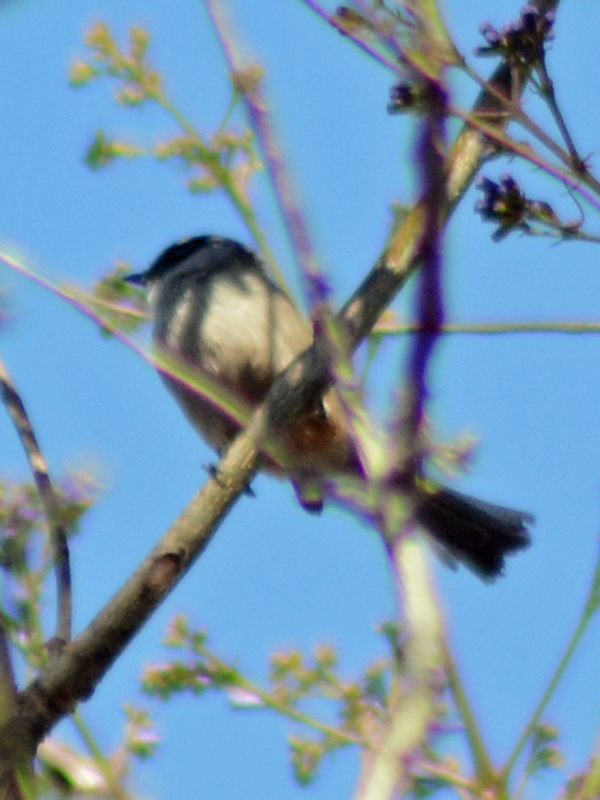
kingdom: Animalia
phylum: Chordata
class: Aves
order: Passeriformes
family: Aegithalidae
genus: Psaltriparus
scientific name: Psaltriparus minimus
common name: American bushtit
